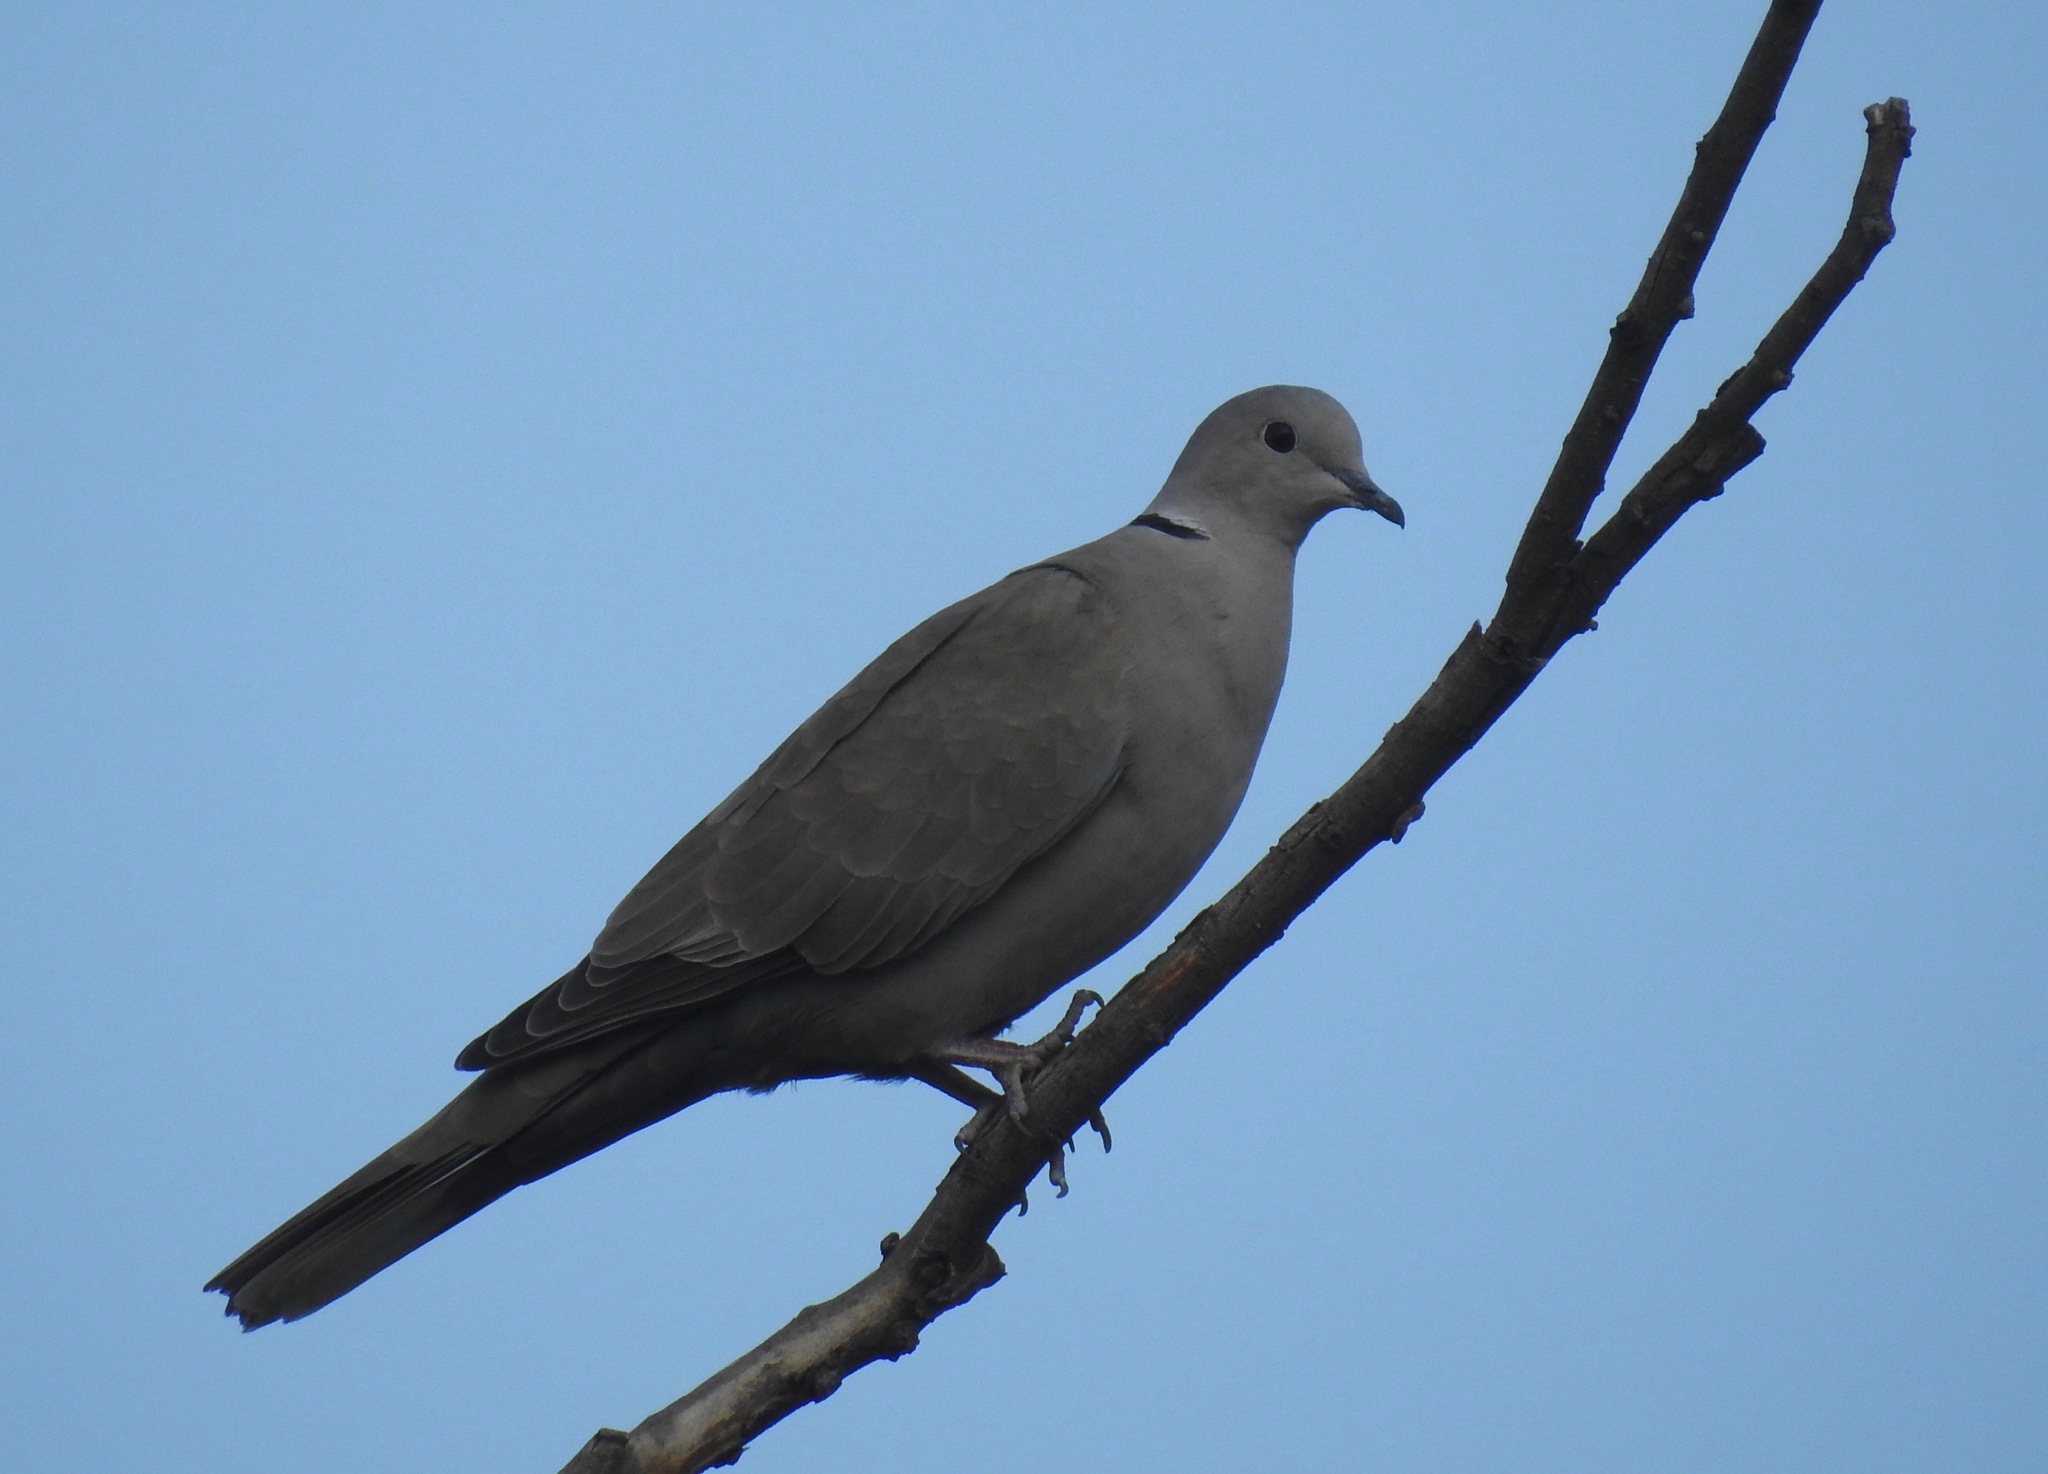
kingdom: Animalia
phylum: Chordata
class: Aves
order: Columbiformes
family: Columbidae
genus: Streptopelia
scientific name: Streptopelia decaocto
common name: Eurasian collared dove
